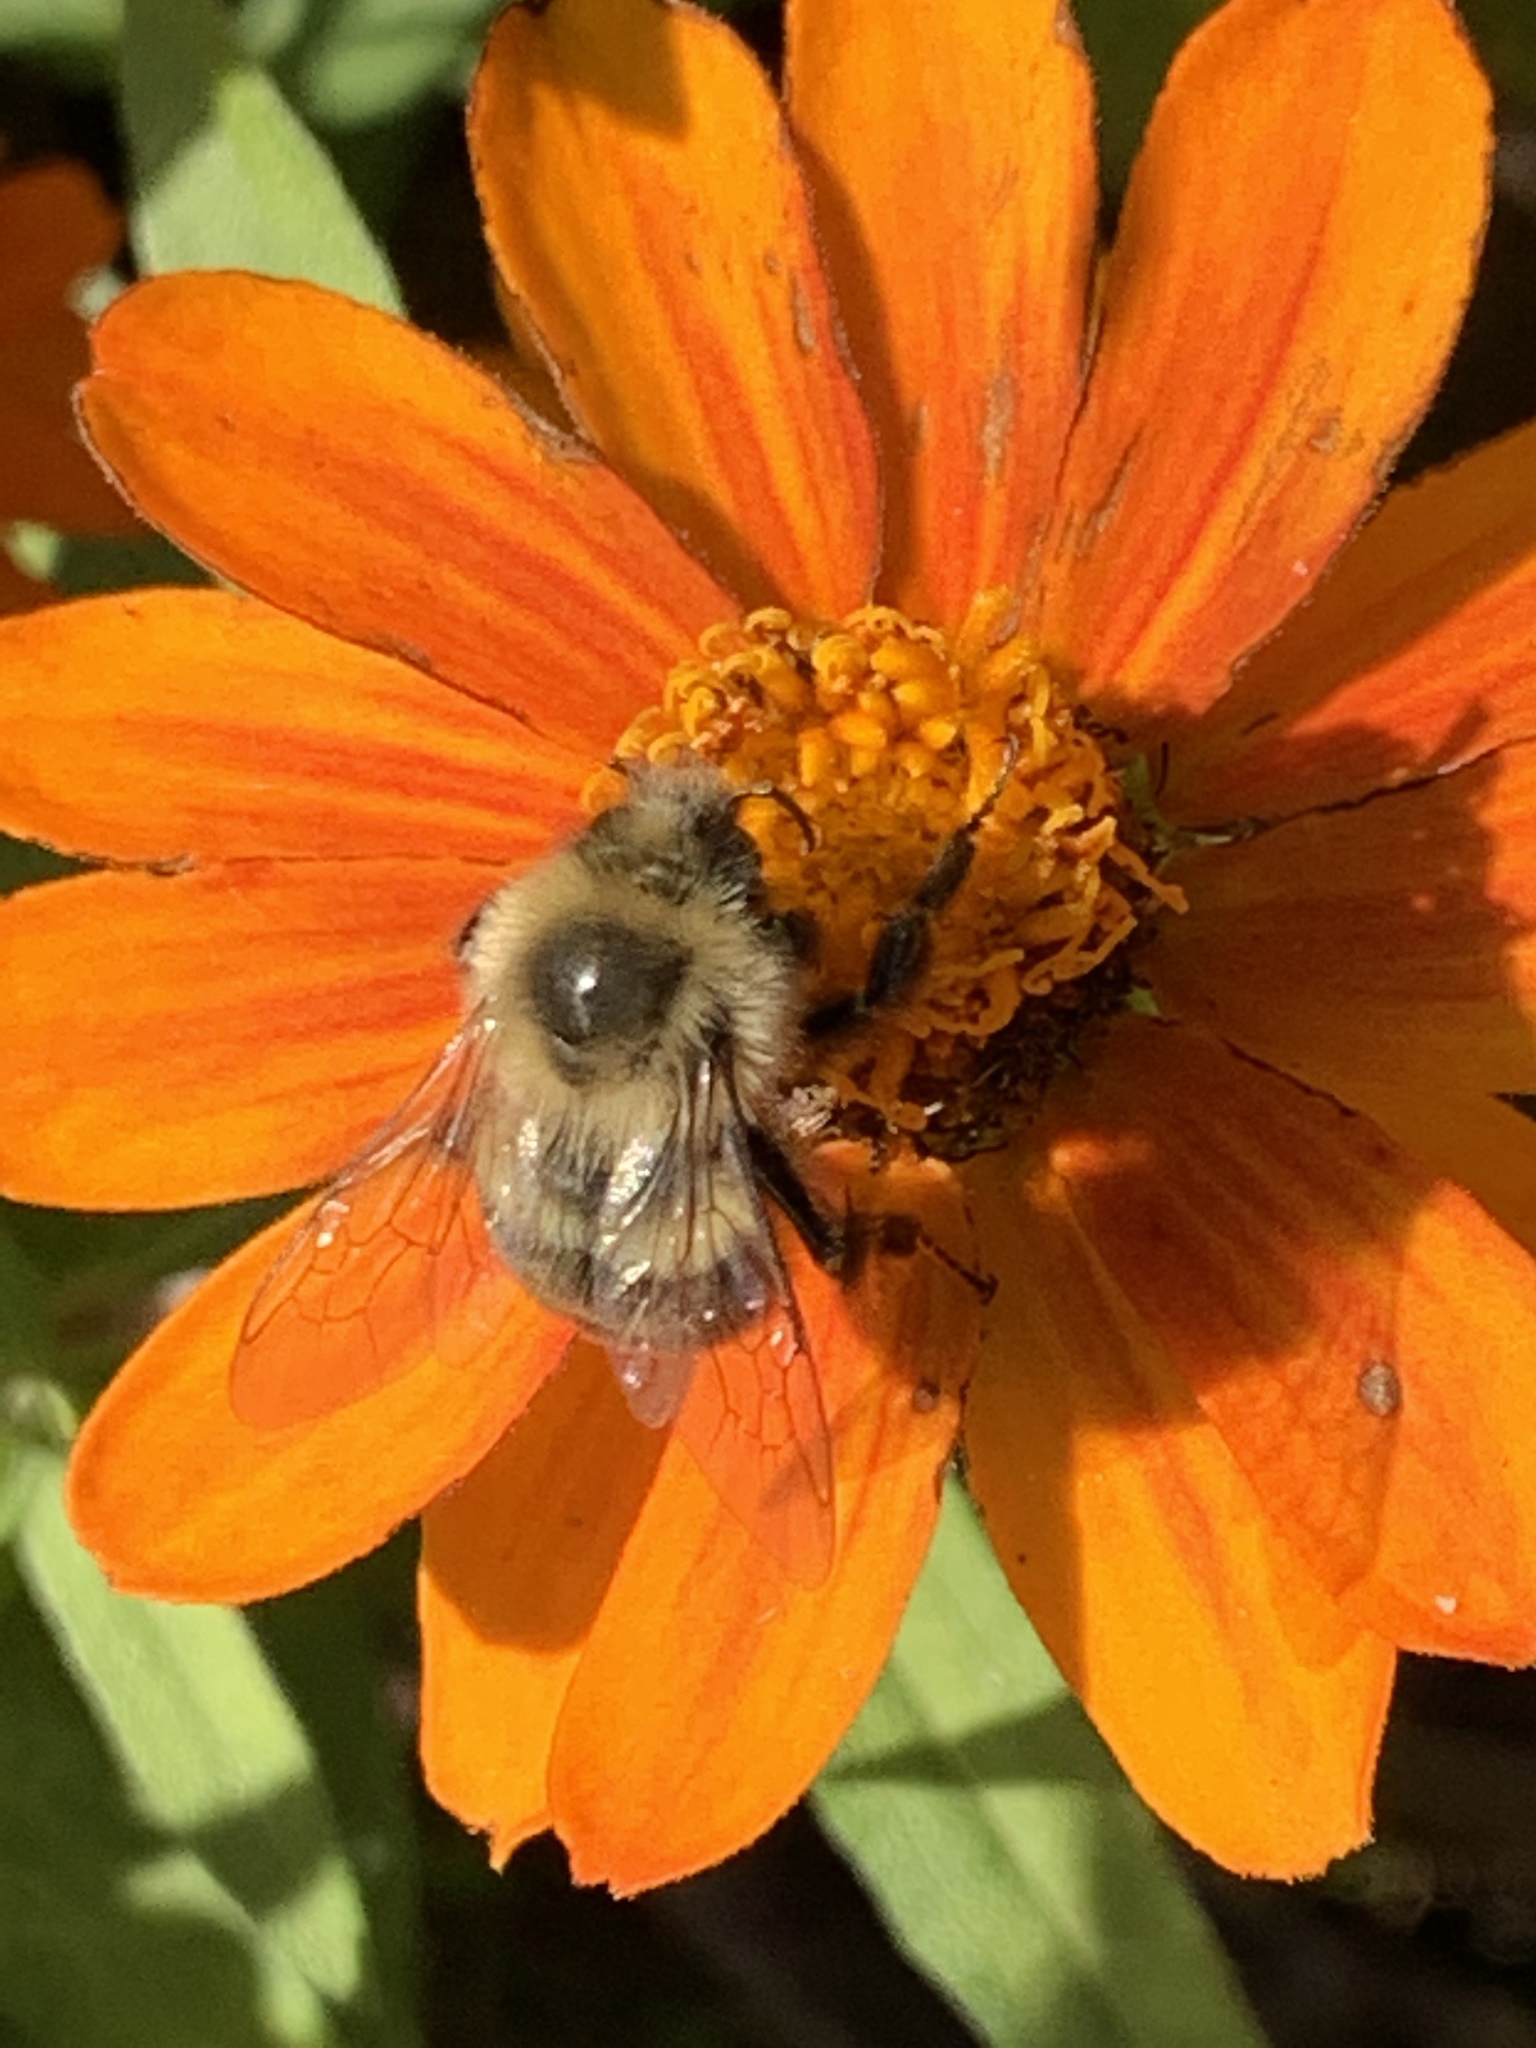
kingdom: Animalia
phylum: Arthropoda
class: Insecta
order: Hymenoptera
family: Apidae
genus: Bombus
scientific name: Bombus impatiens
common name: Common eastern bumble bee
